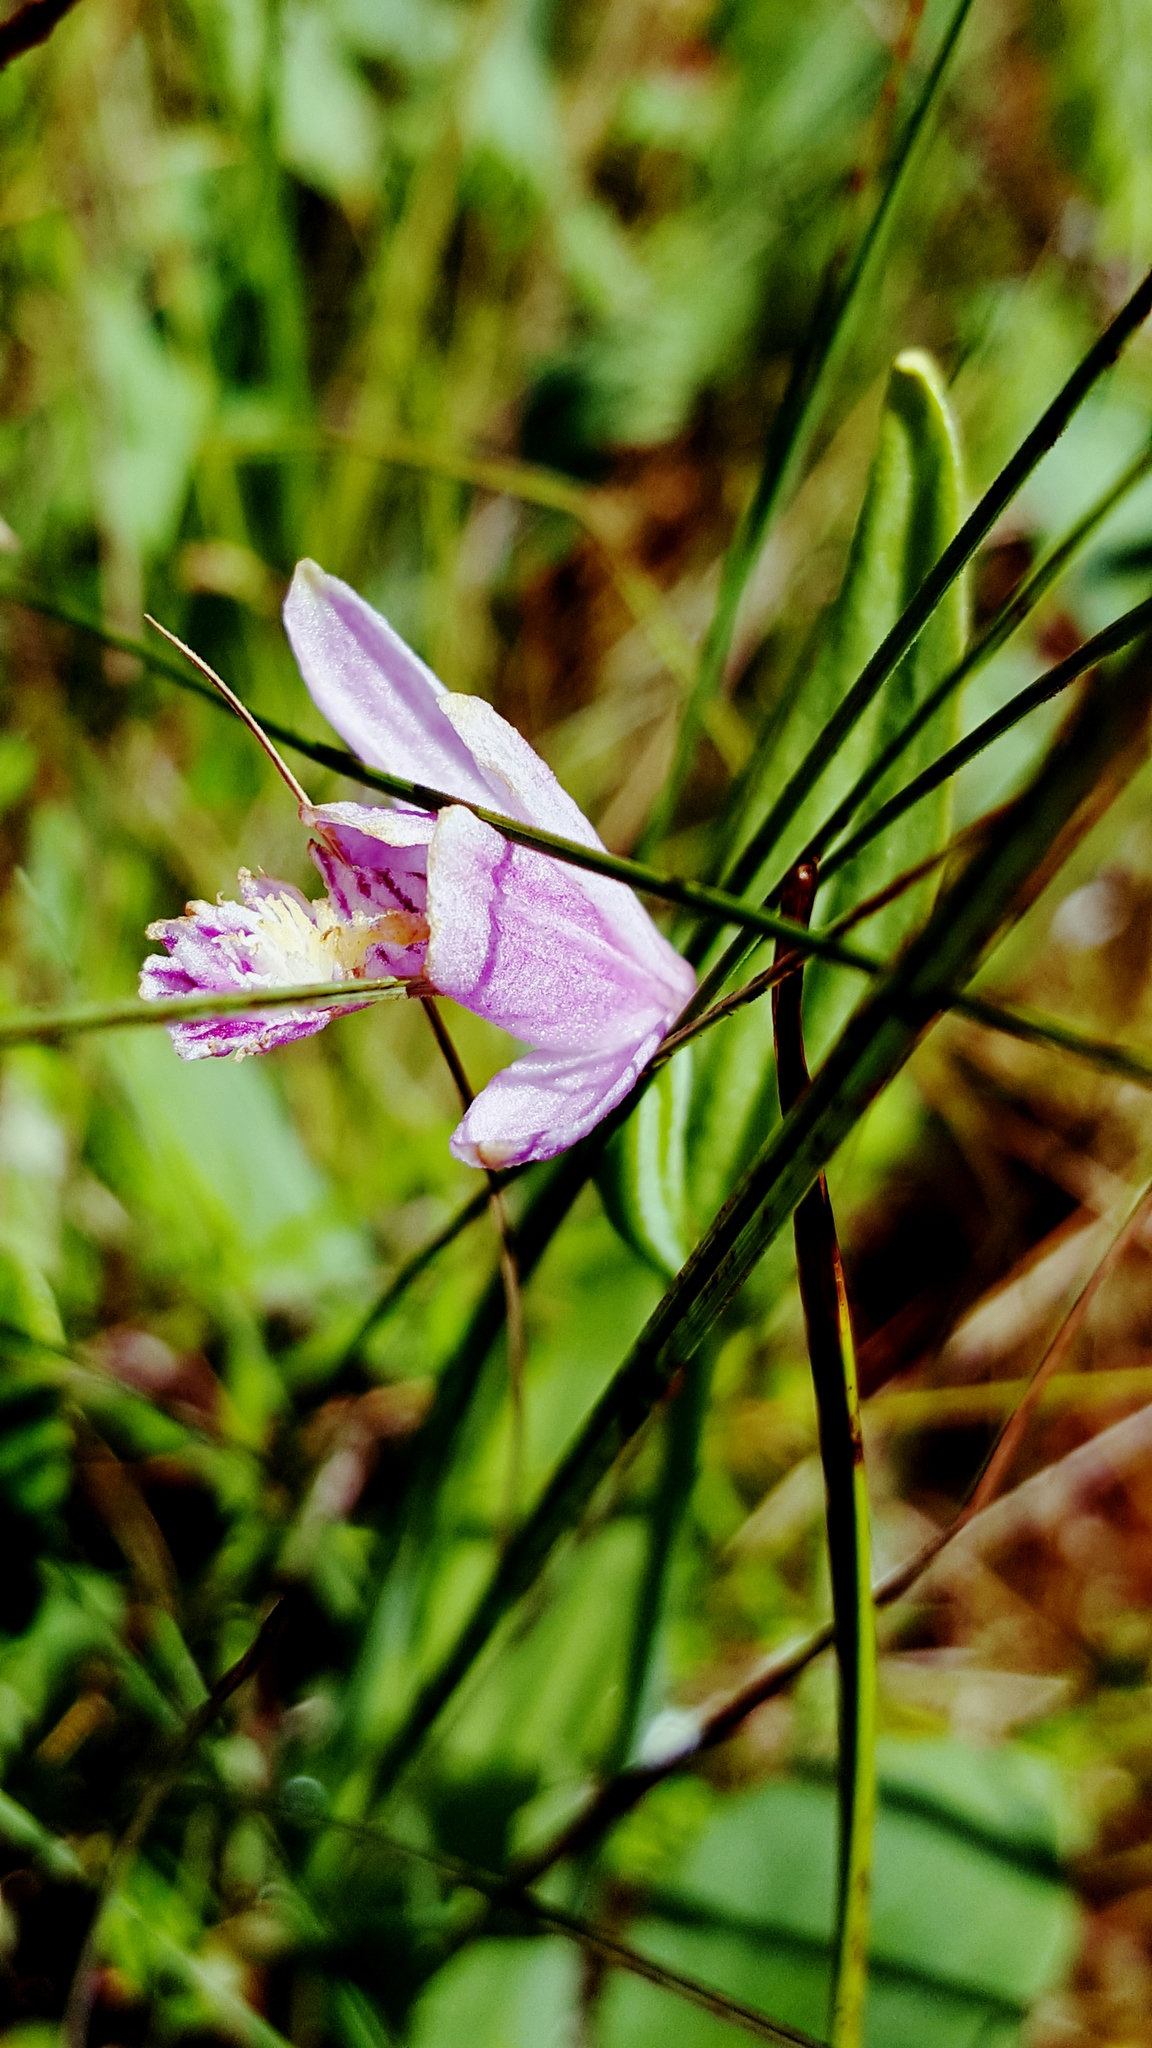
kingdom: Plantae
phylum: Tracheophyta
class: Liliopsida
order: Asparagales
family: Orchidaceae
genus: Pogonia
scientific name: Pogonia ophioglossoides
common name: Rose pogonia
